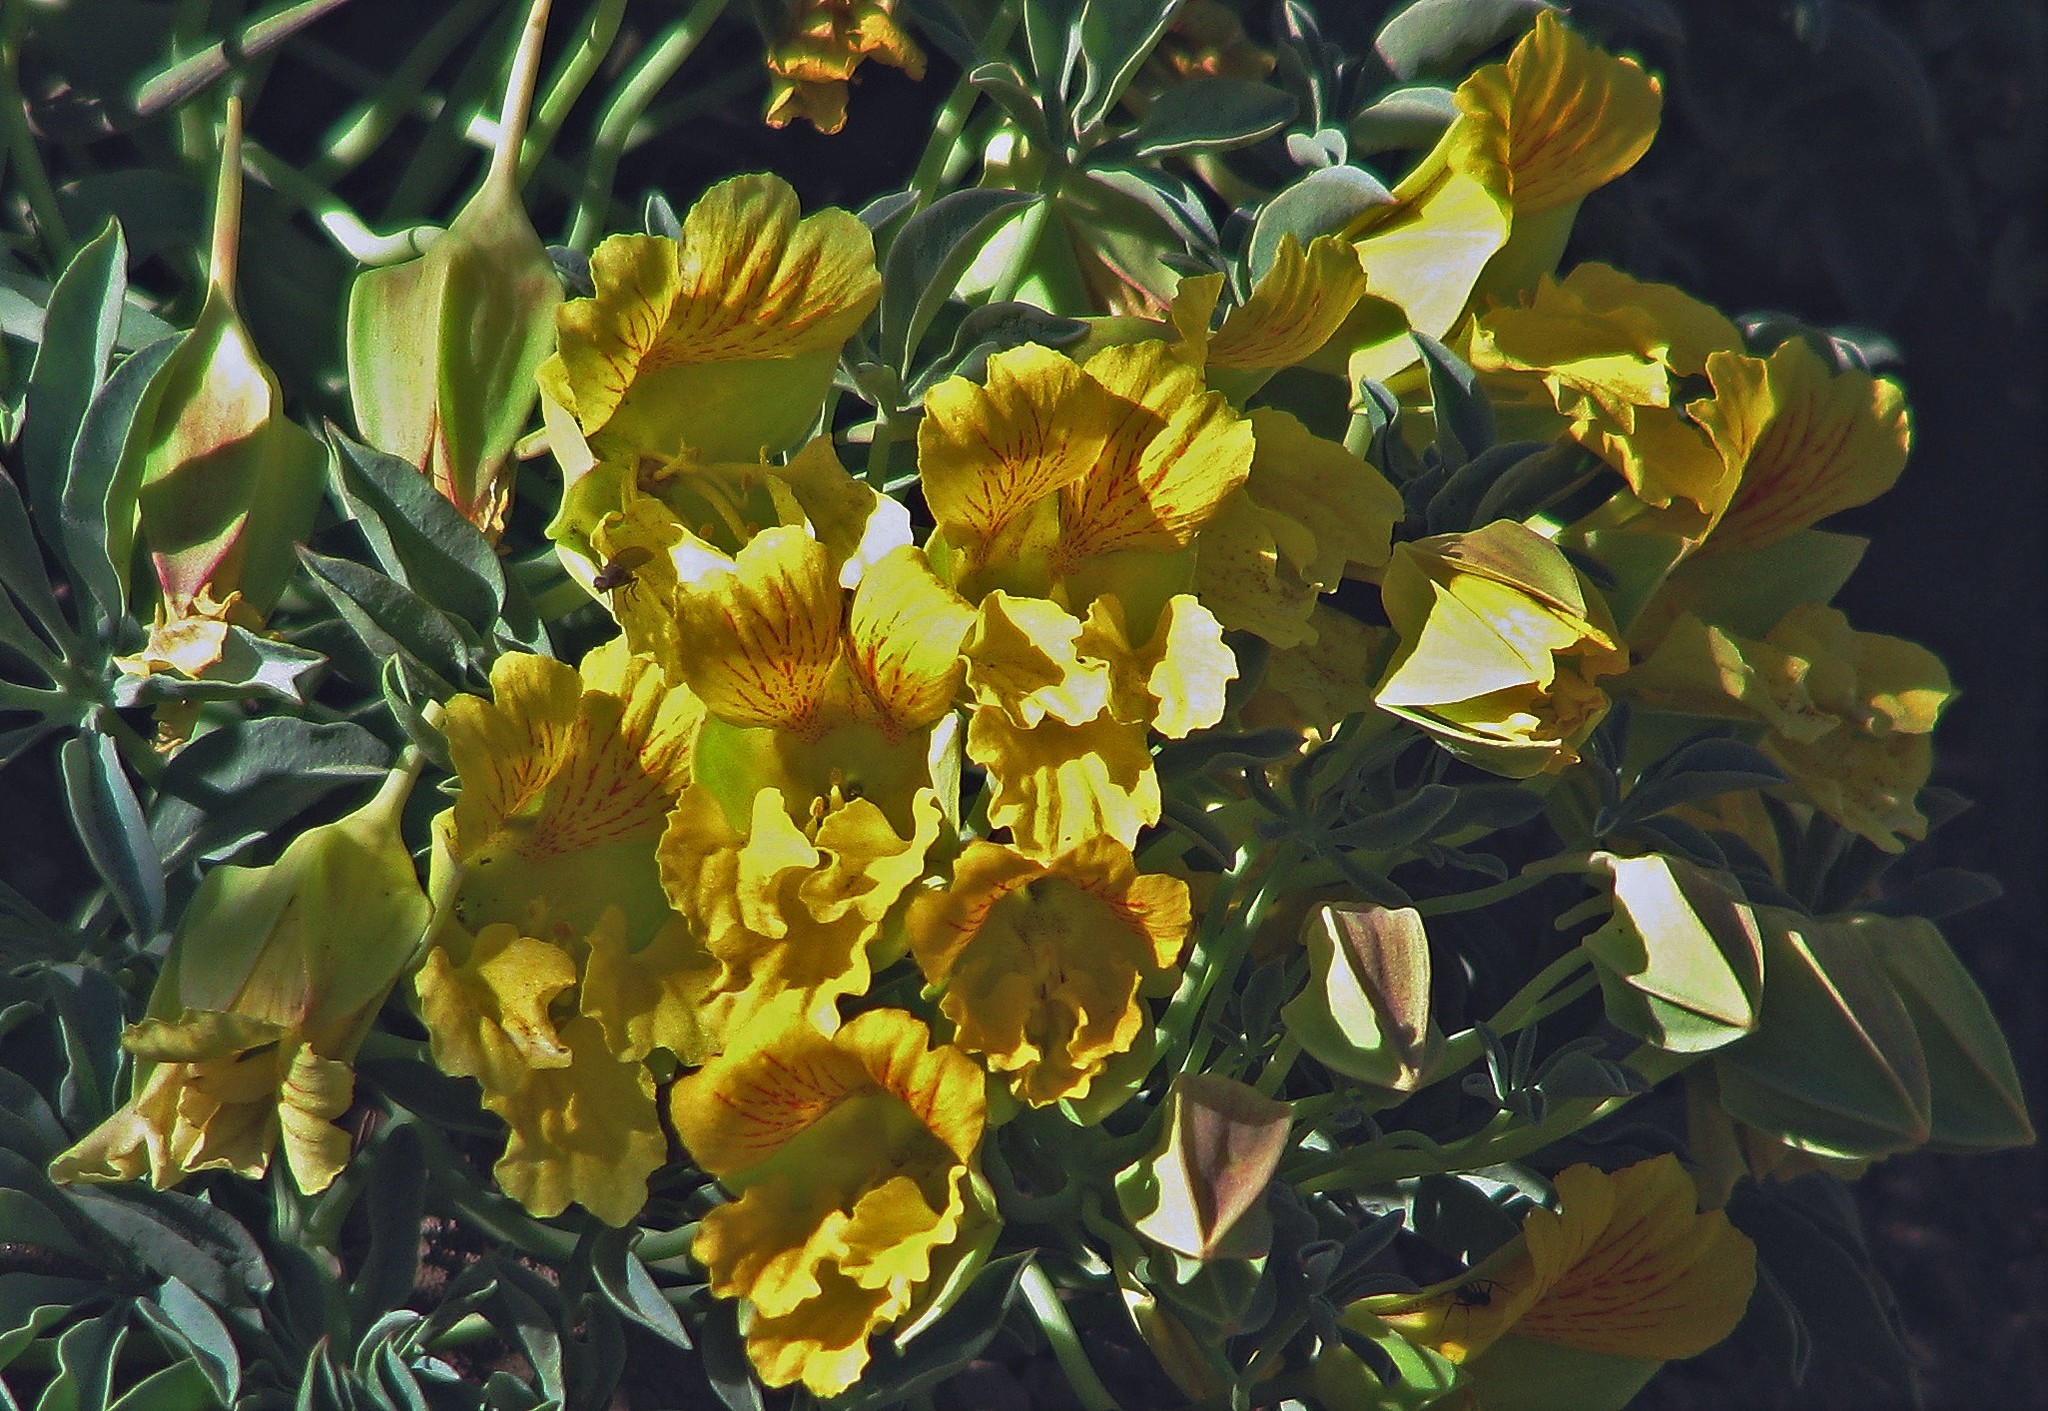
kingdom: Plantae
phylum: Tracheophyta
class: Magnoliopsida
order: Brassicales
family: Tropaeolaceae
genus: Tropaeolum
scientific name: Tropaeolum polyphyllum
